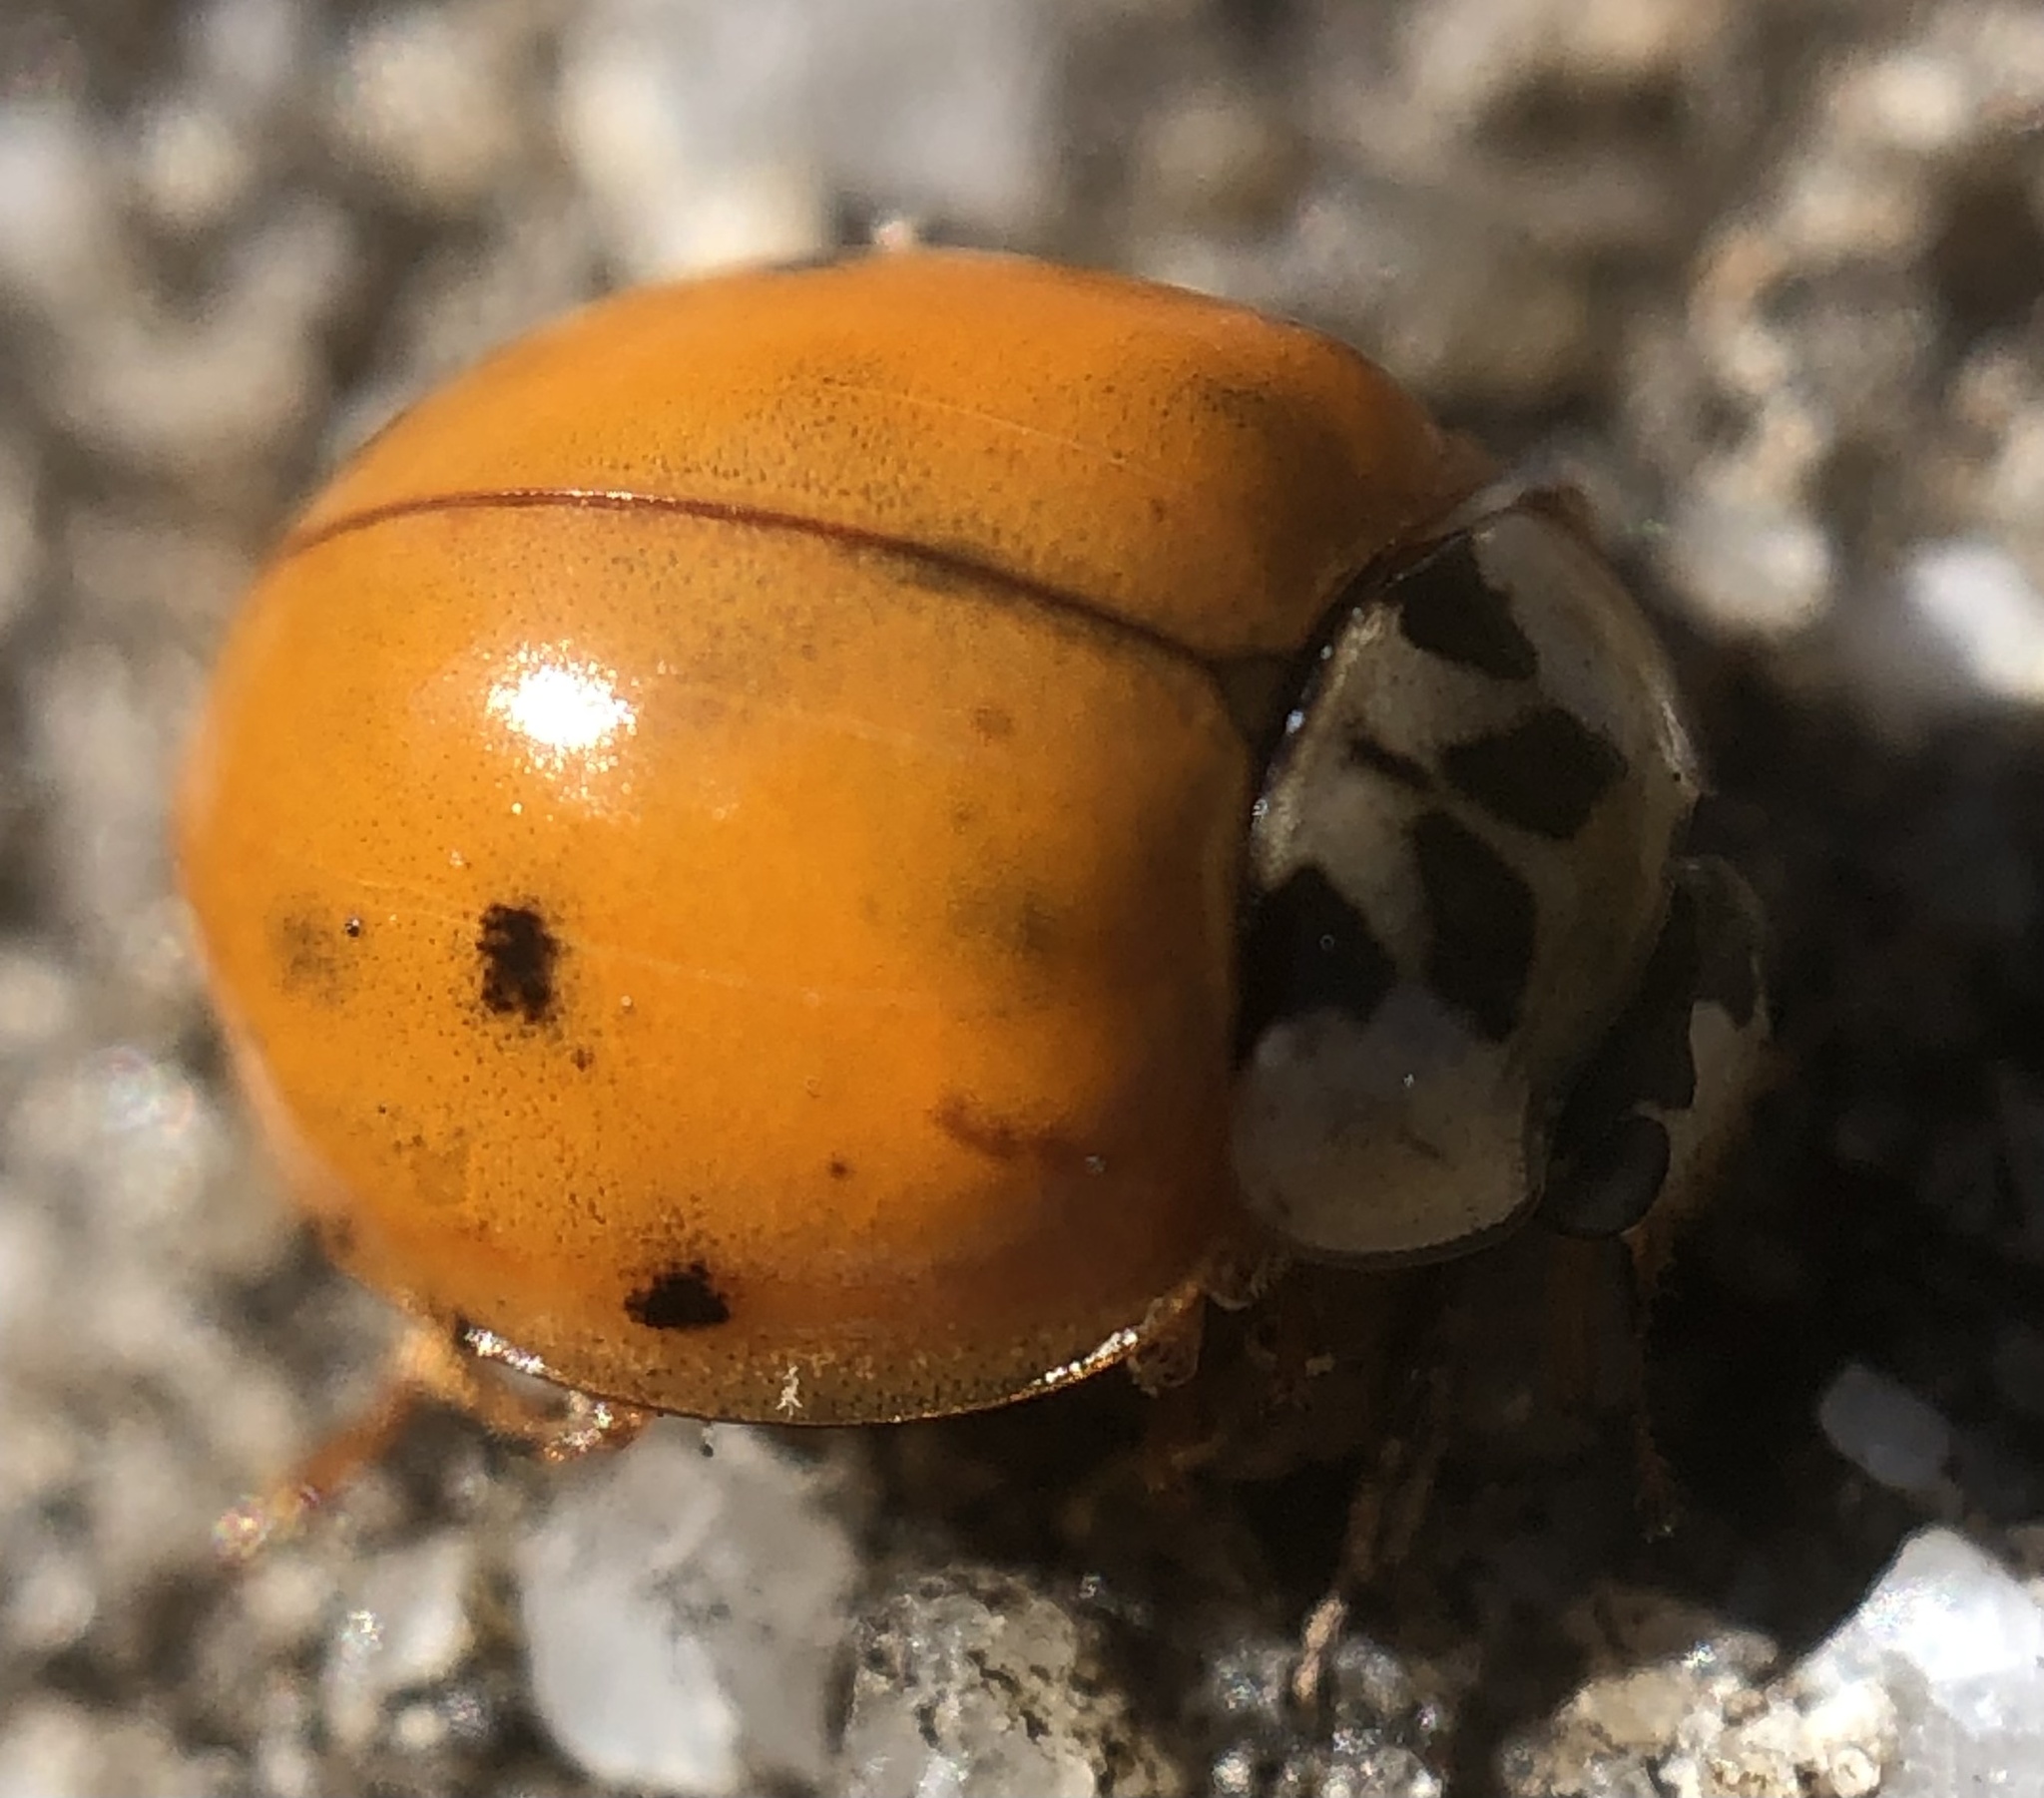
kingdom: Animalia
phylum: Arthropoda
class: Insecta
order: Coleoptera
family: Coccinellidae
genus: Harmonia
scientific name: Harmonia axyridis
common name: Harlequin ladybird
